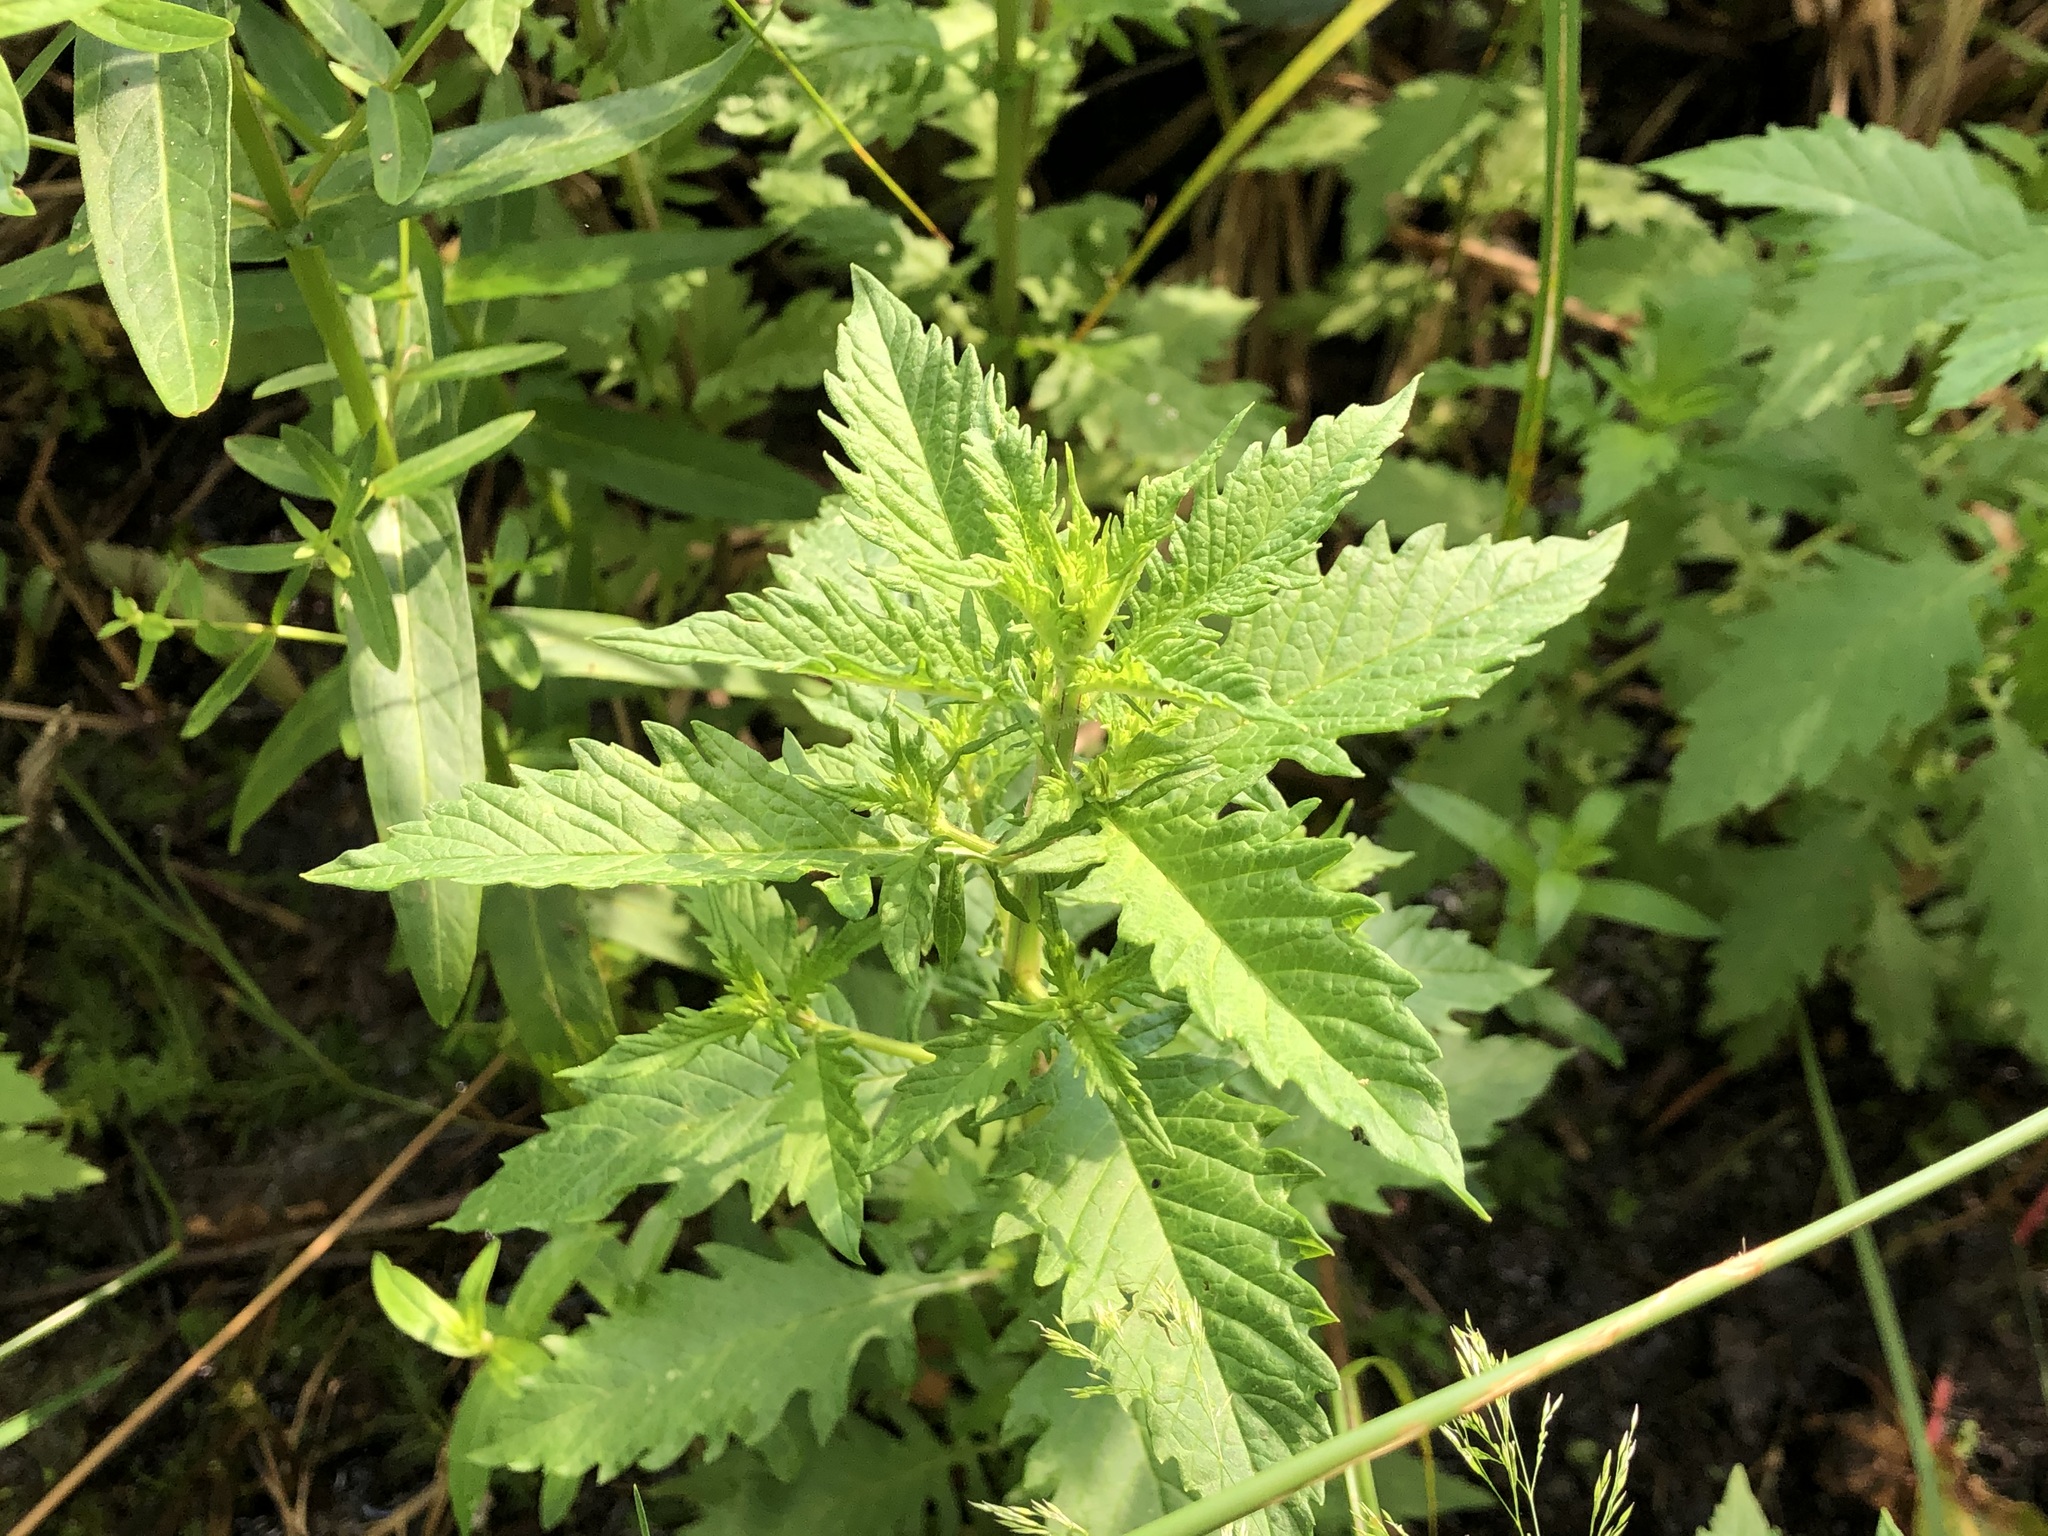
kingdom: Plantae
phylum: Tracheophyta
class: Magnoliopsida
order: Lamiales
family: Lamiaceae
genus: Lycopus
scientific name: Lycopus europaeus
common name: European bugleweed
